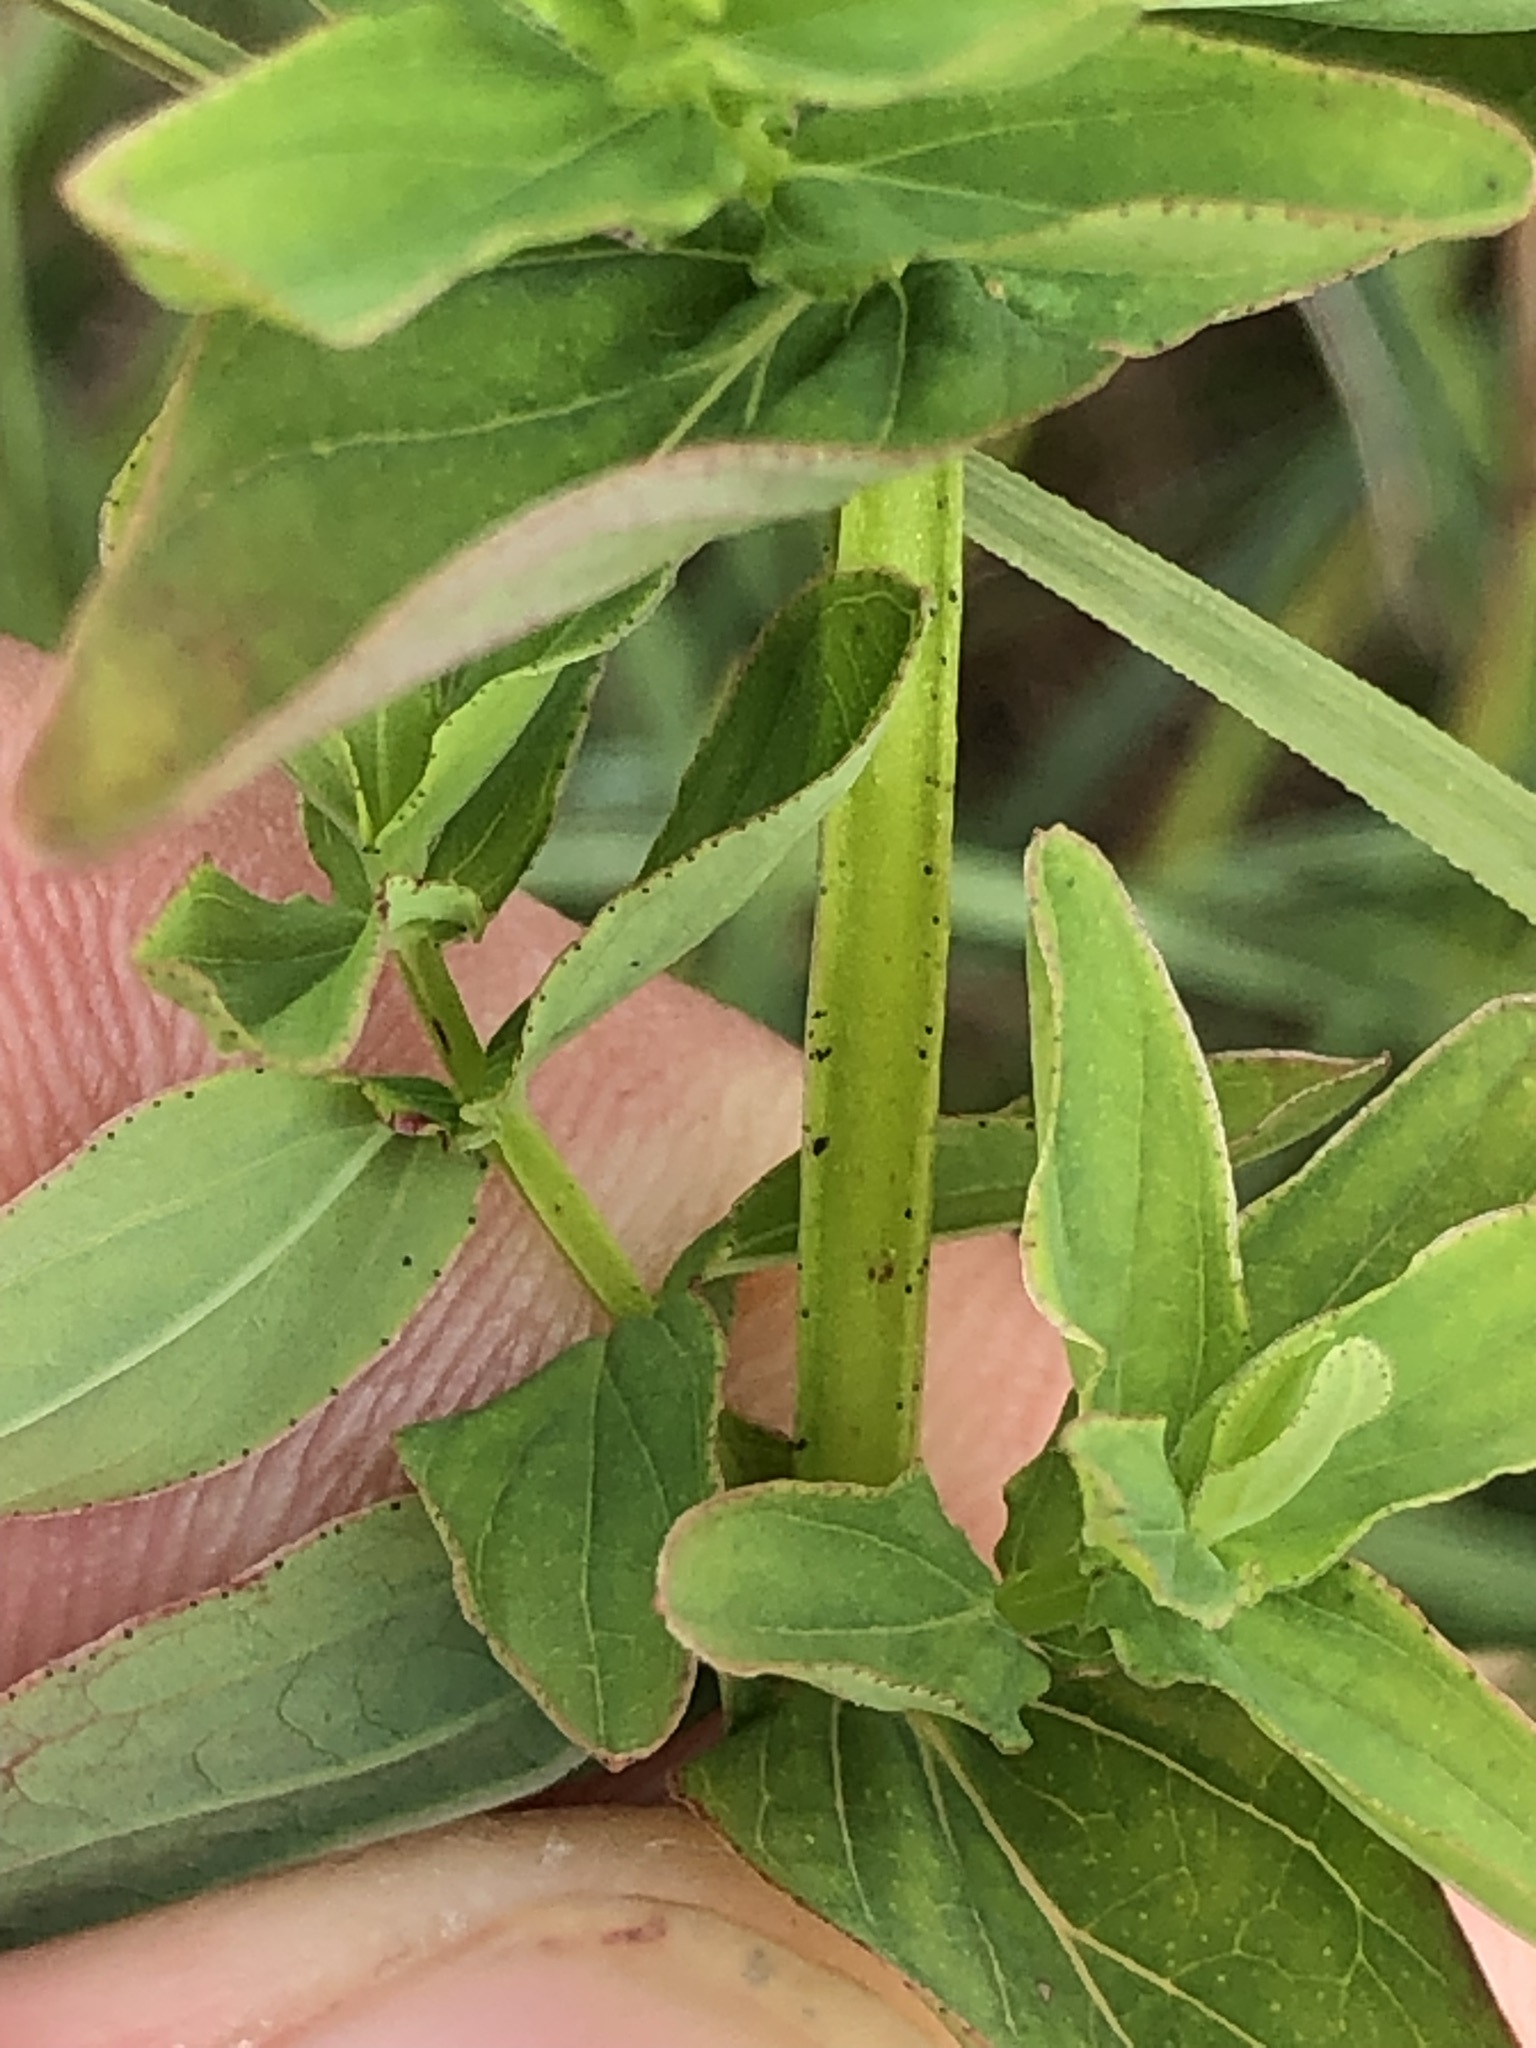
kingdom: Plantae
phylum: Tracheophyta
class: Magnoliopsida
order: Malpighiales
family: Hypericaceae
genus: Hypericum
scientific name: Hypericum tetrapterum
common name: Square-stalked st. john's-wort
